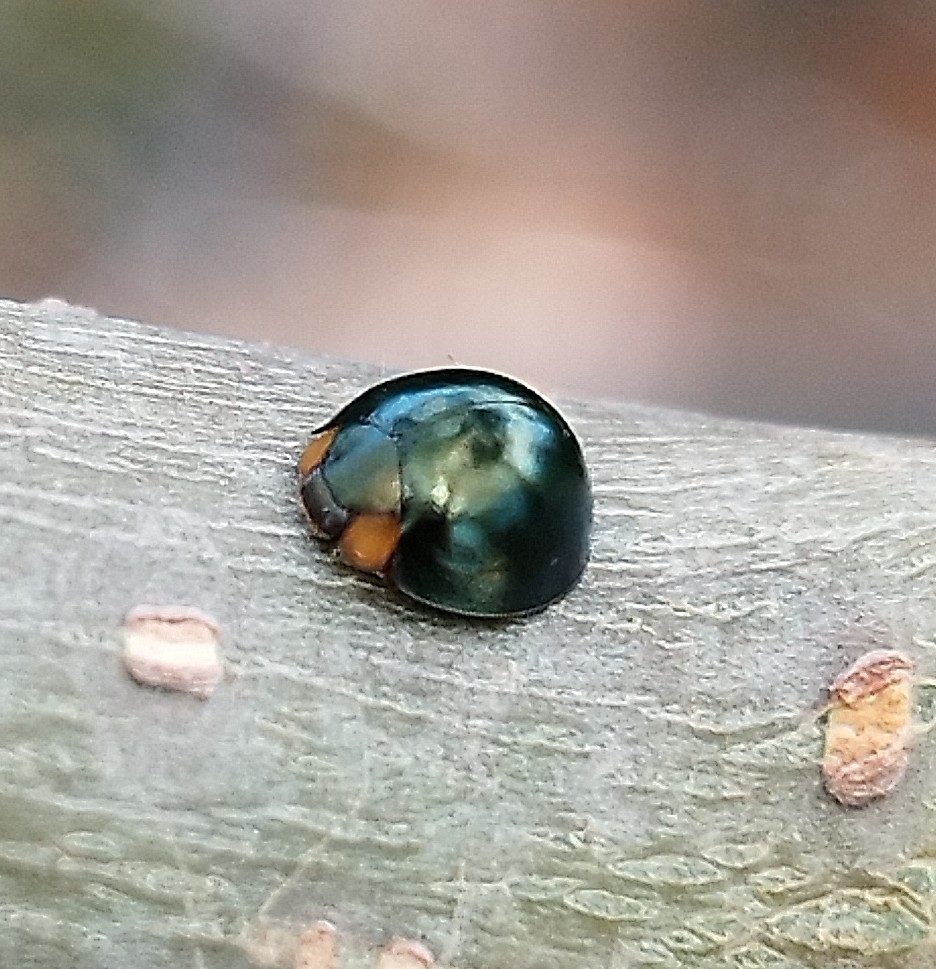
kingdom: Animalia
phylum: Arthropoda
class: Insecta
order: Coleoptera
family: Coccinellidae
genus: Curinus
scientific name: Curinus coeruleus
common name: Ladybird beetle
